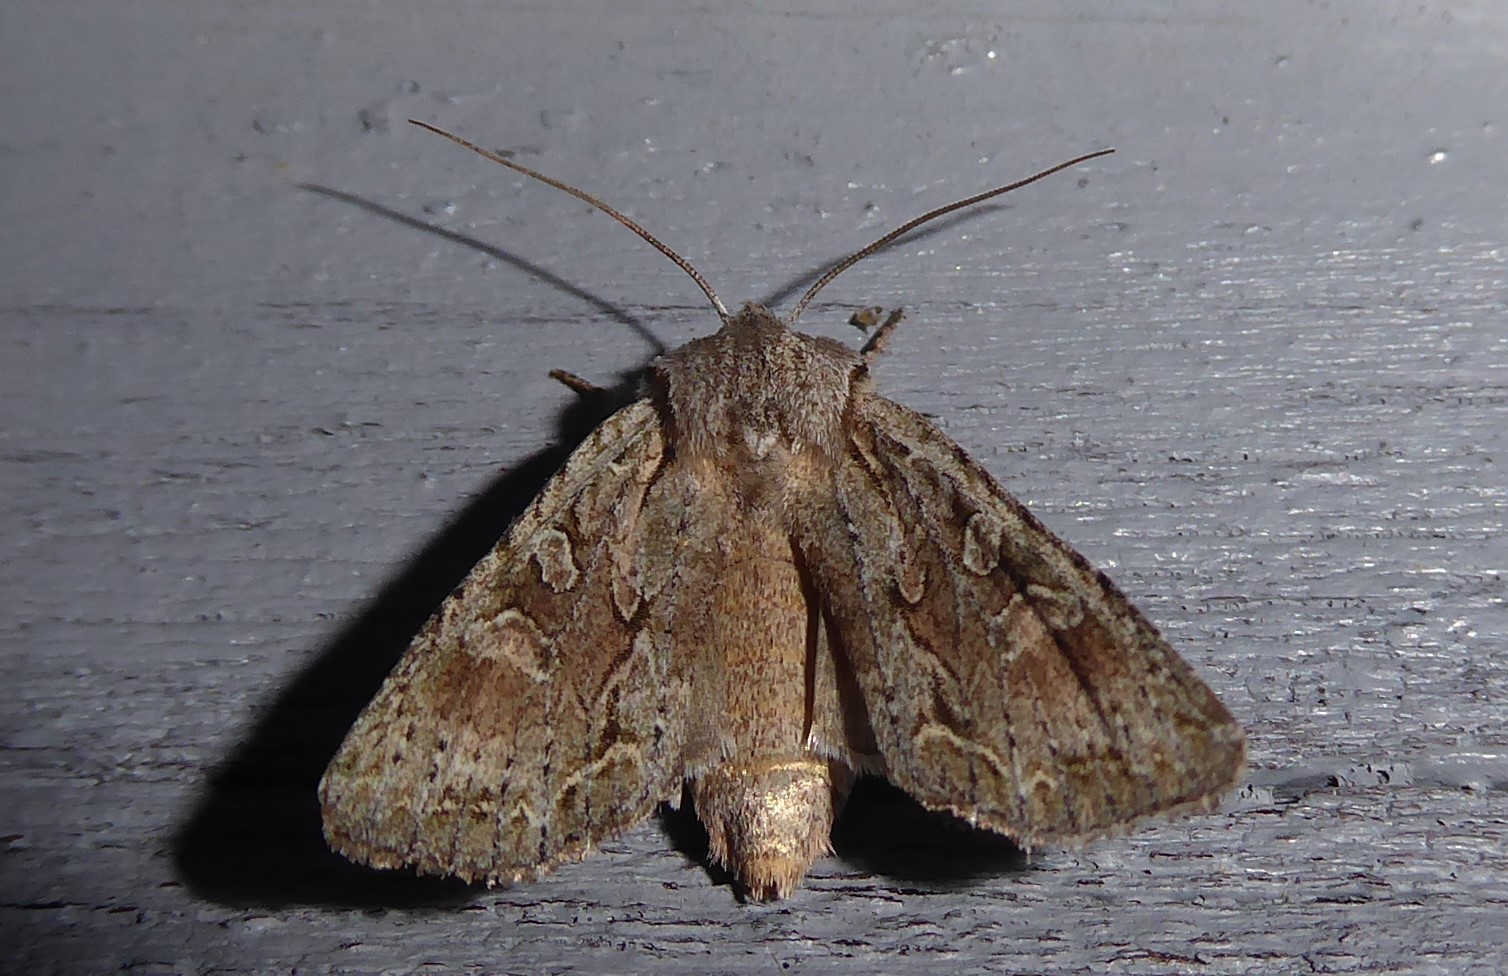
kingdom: Animalia
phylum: Arthropoda
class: Insecta
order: Lepidoptera
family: Noctuidae
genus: Ichneutica
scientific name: Ichneutica mutans
